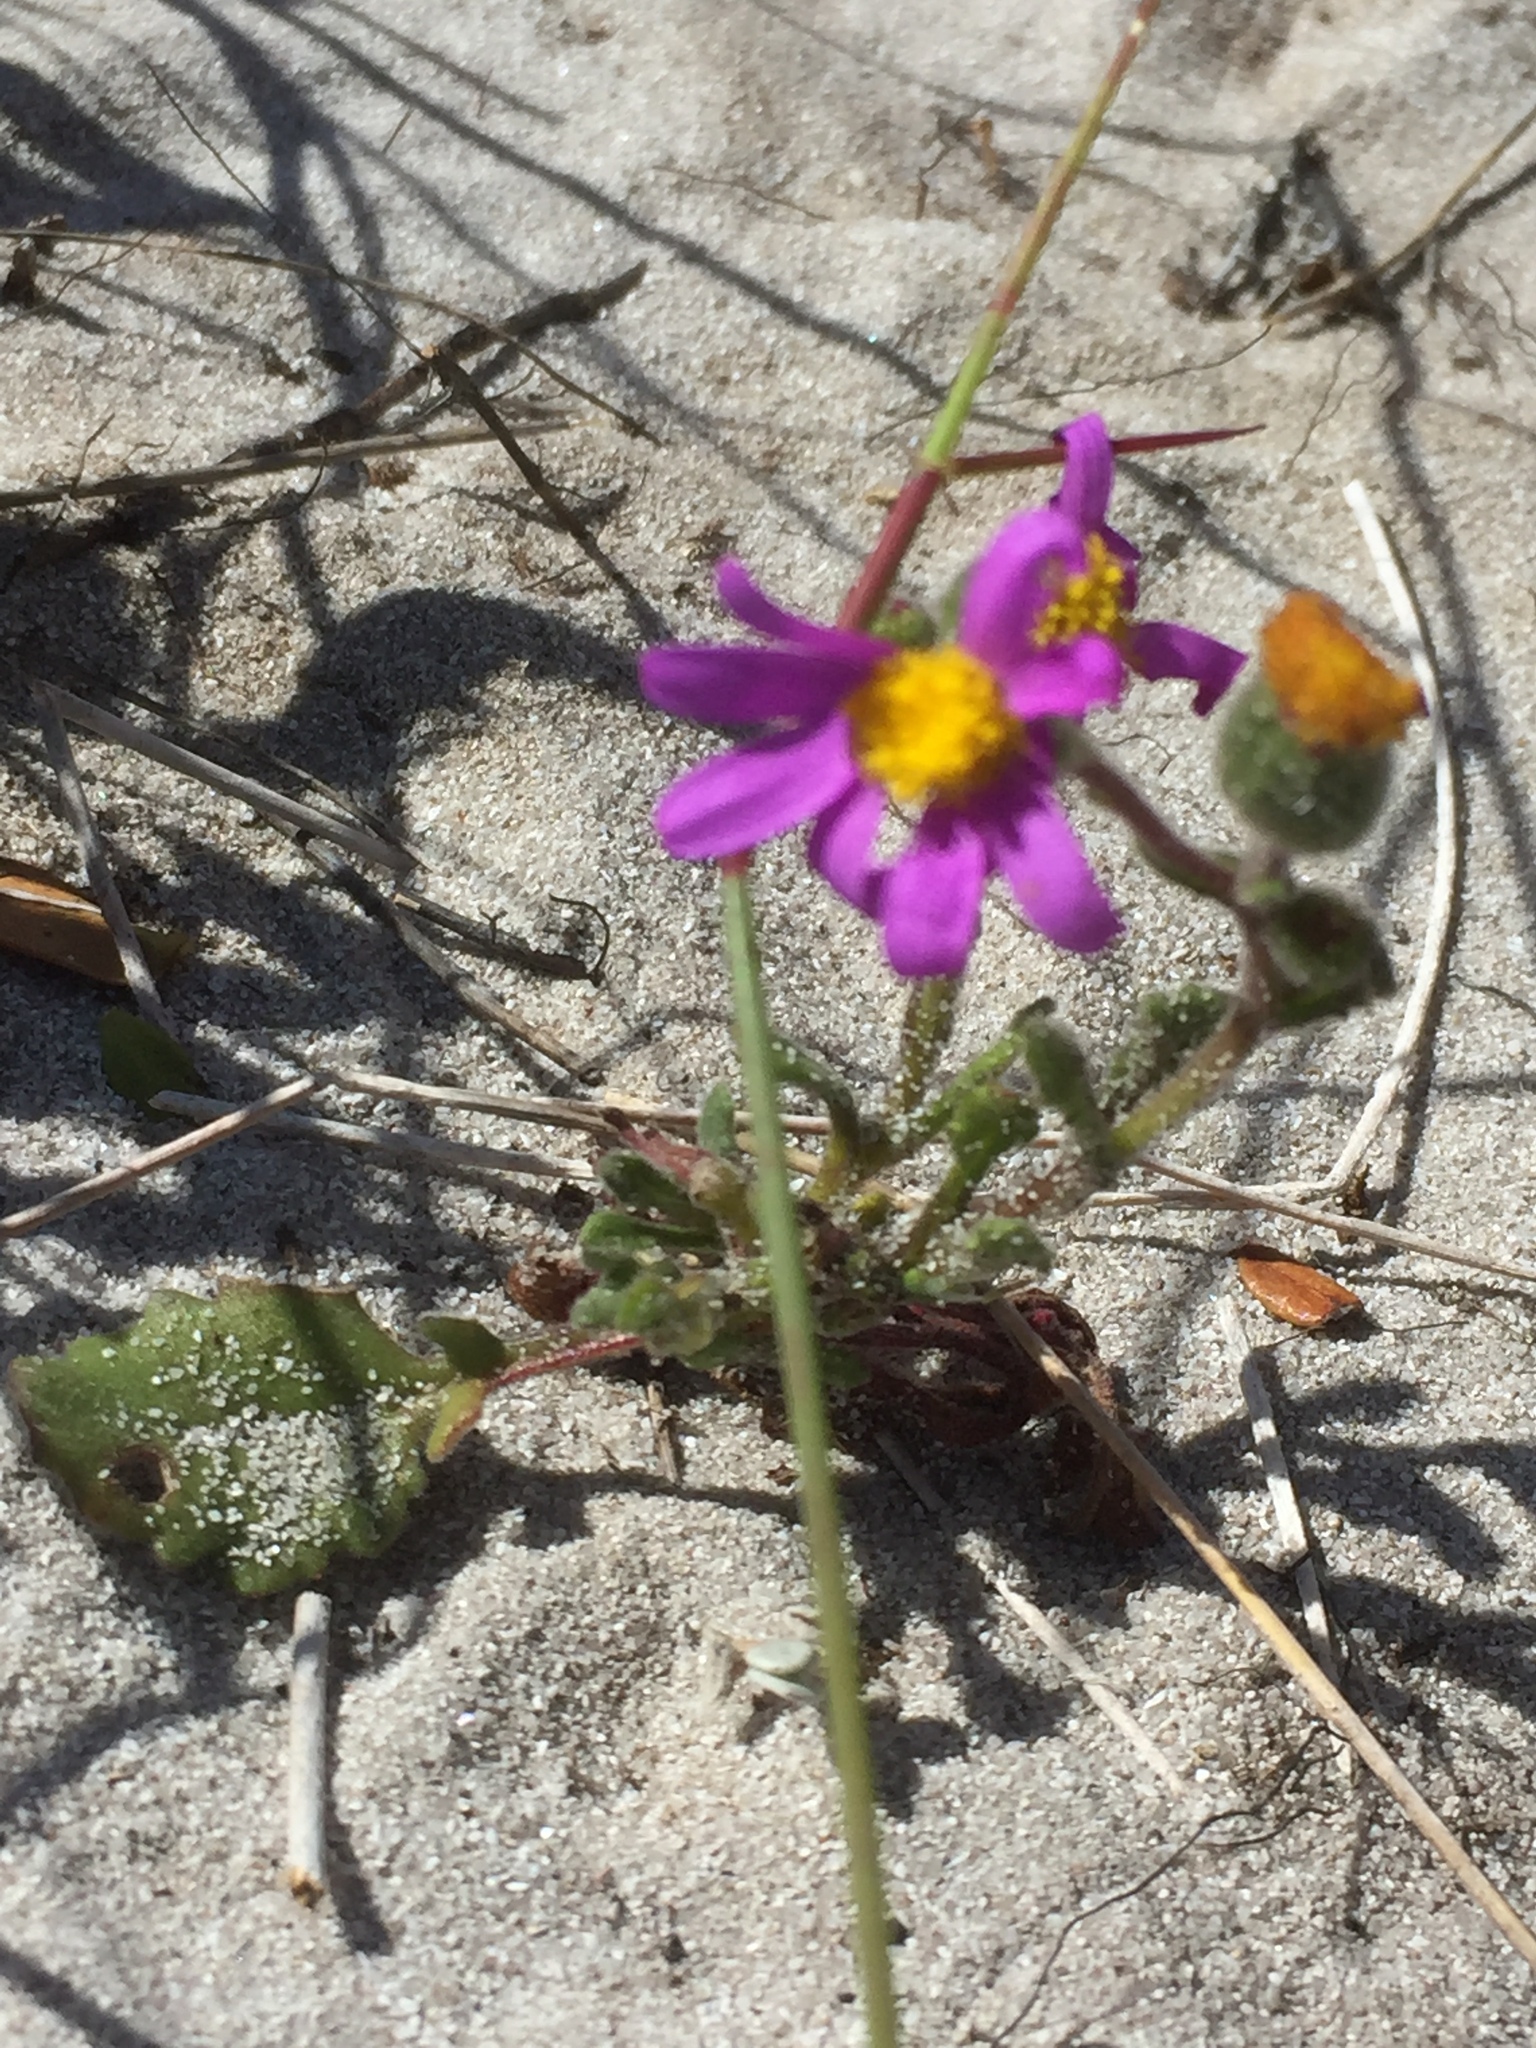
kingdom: Plantae
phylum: Tracheophyta
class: Magnoliopsida
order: Asterales
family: Asteraceae
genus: Senecio
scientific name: Senecio arenarius
